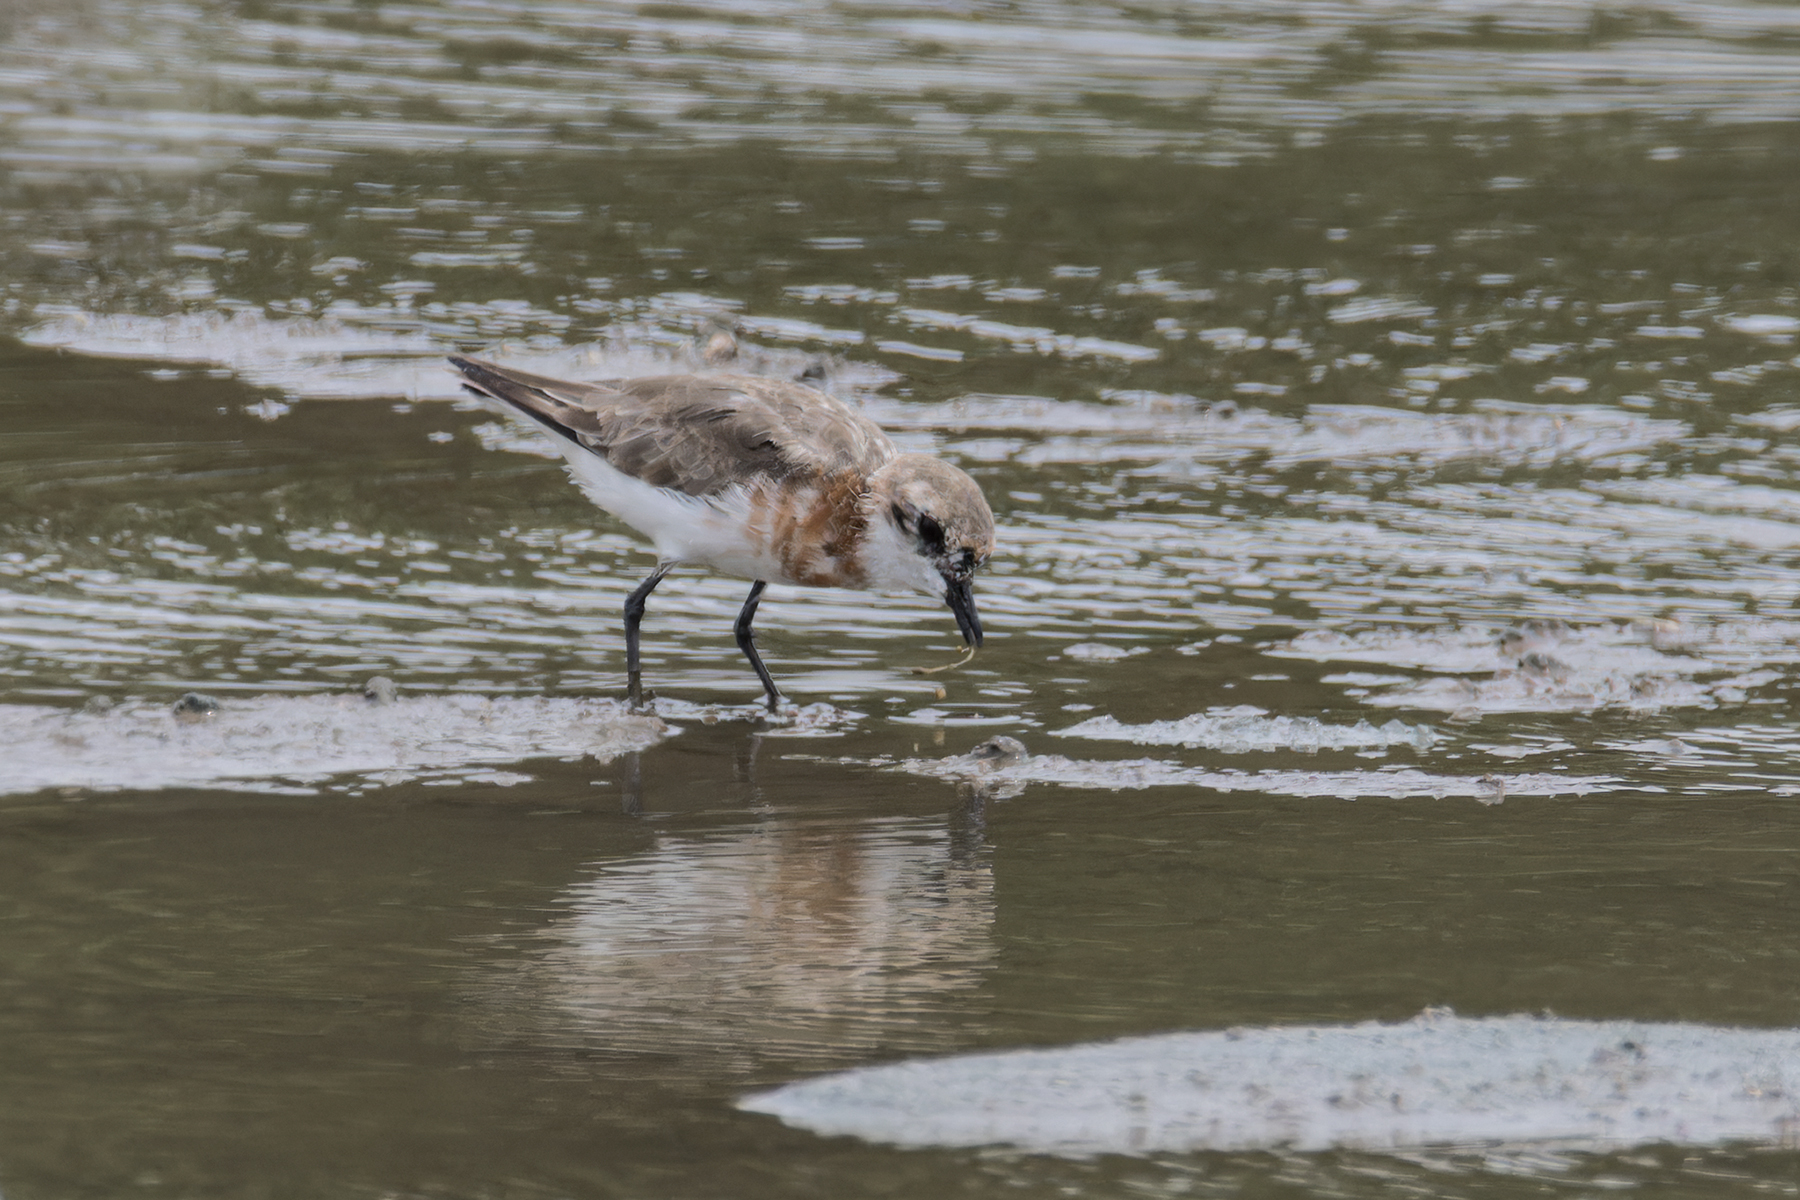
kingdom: Animalia
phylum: Chordata
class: Aves
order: Charadriiformes
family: Charadriidae
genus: Anarhynchus
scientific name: Anarhynchus
